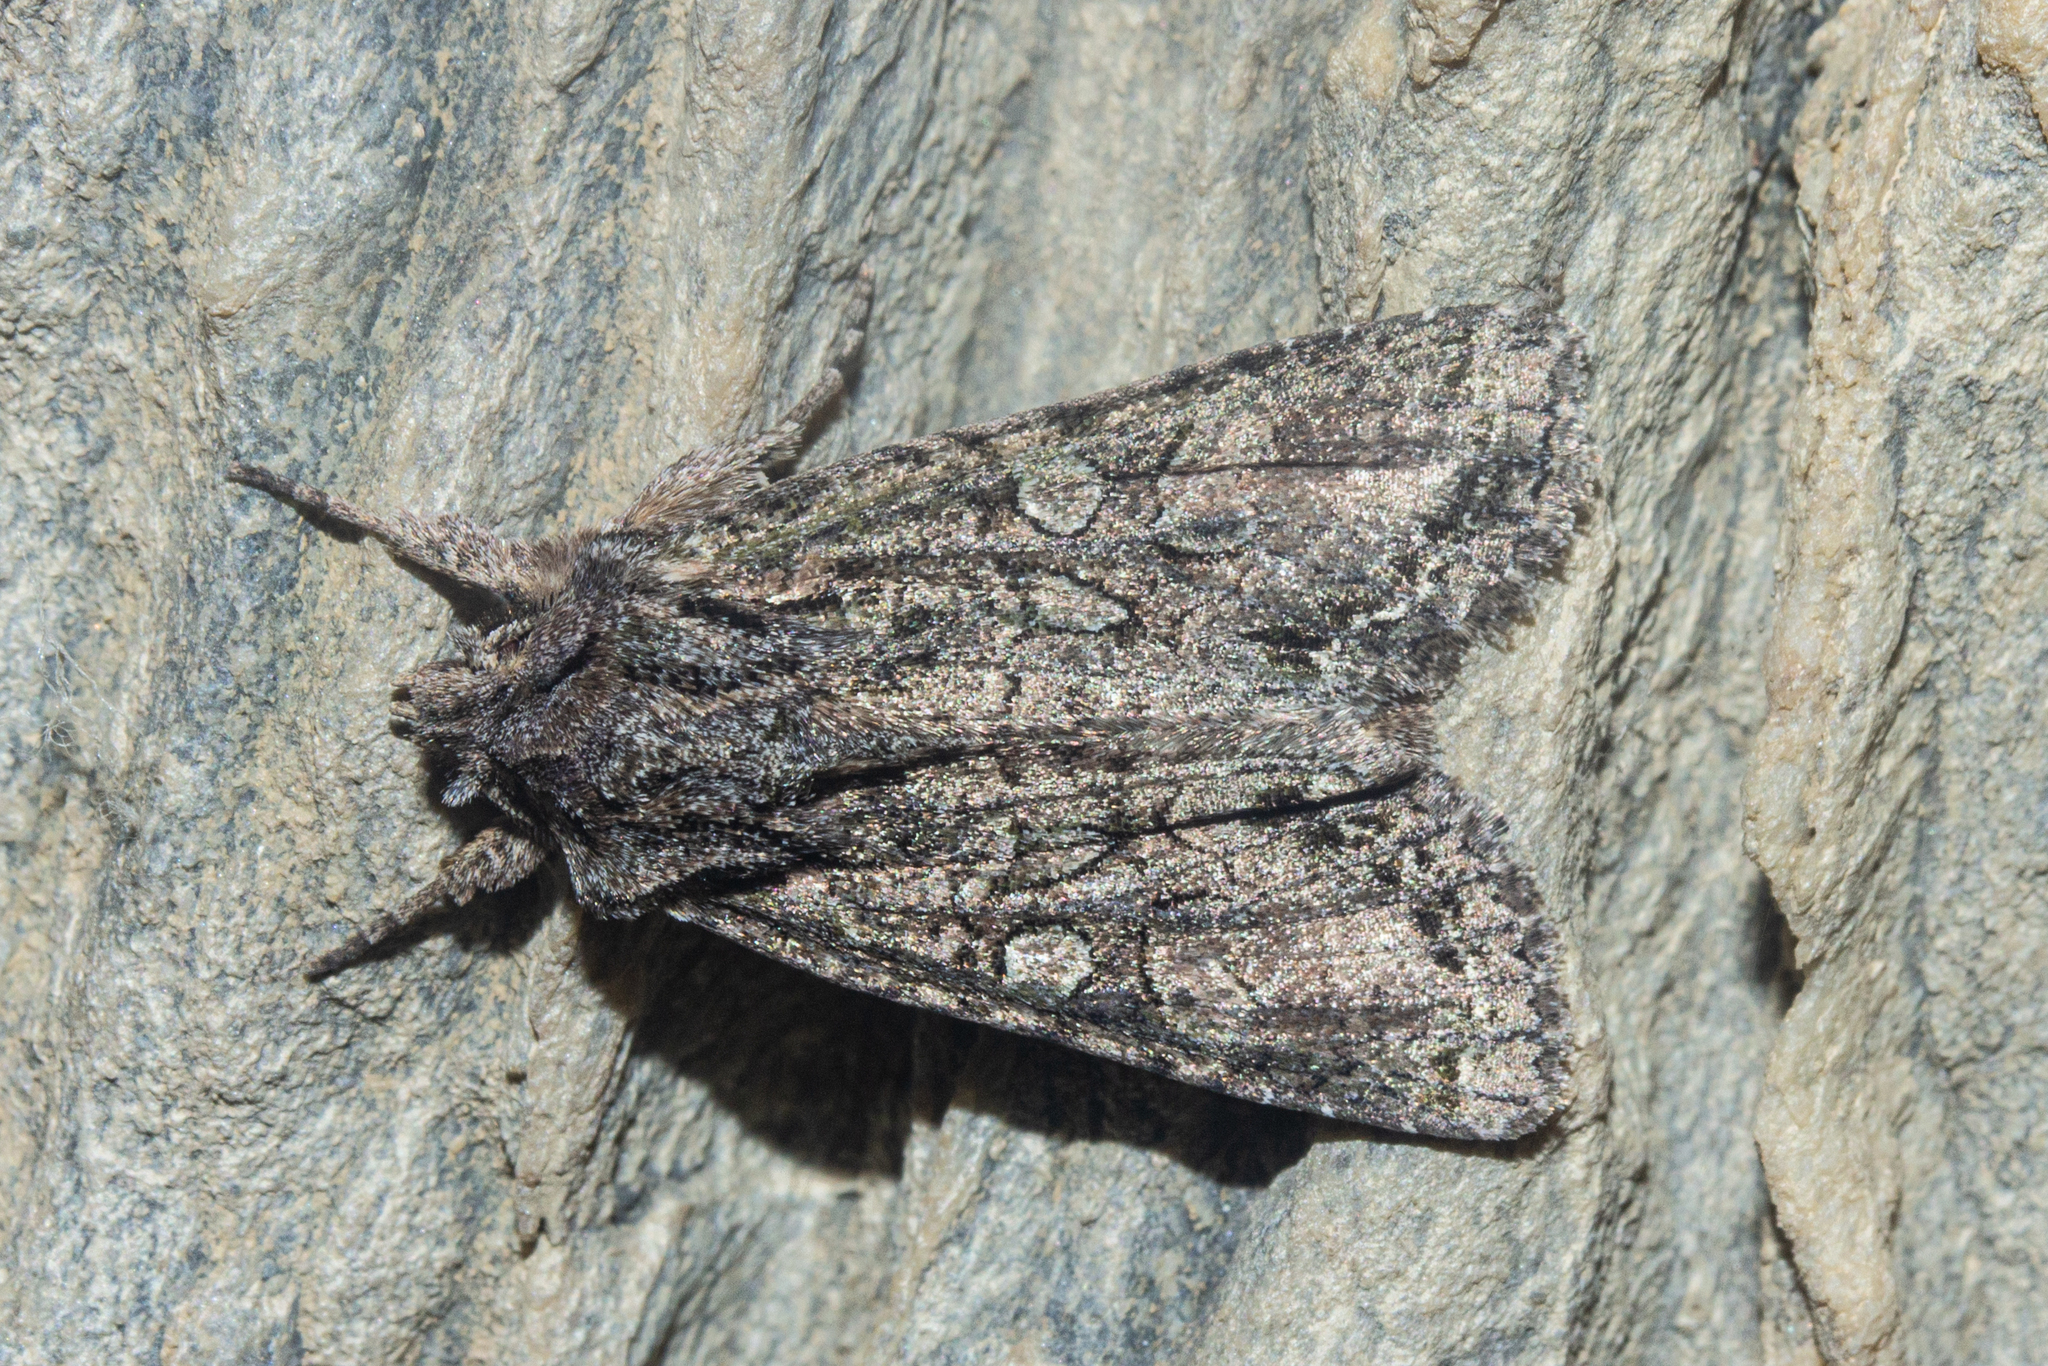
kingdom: Animalia
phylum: Arthropoda
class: Insecta
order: Lepidoptera
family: Noctuidae
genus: Ichneutica
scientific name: Ichneutica mutans
